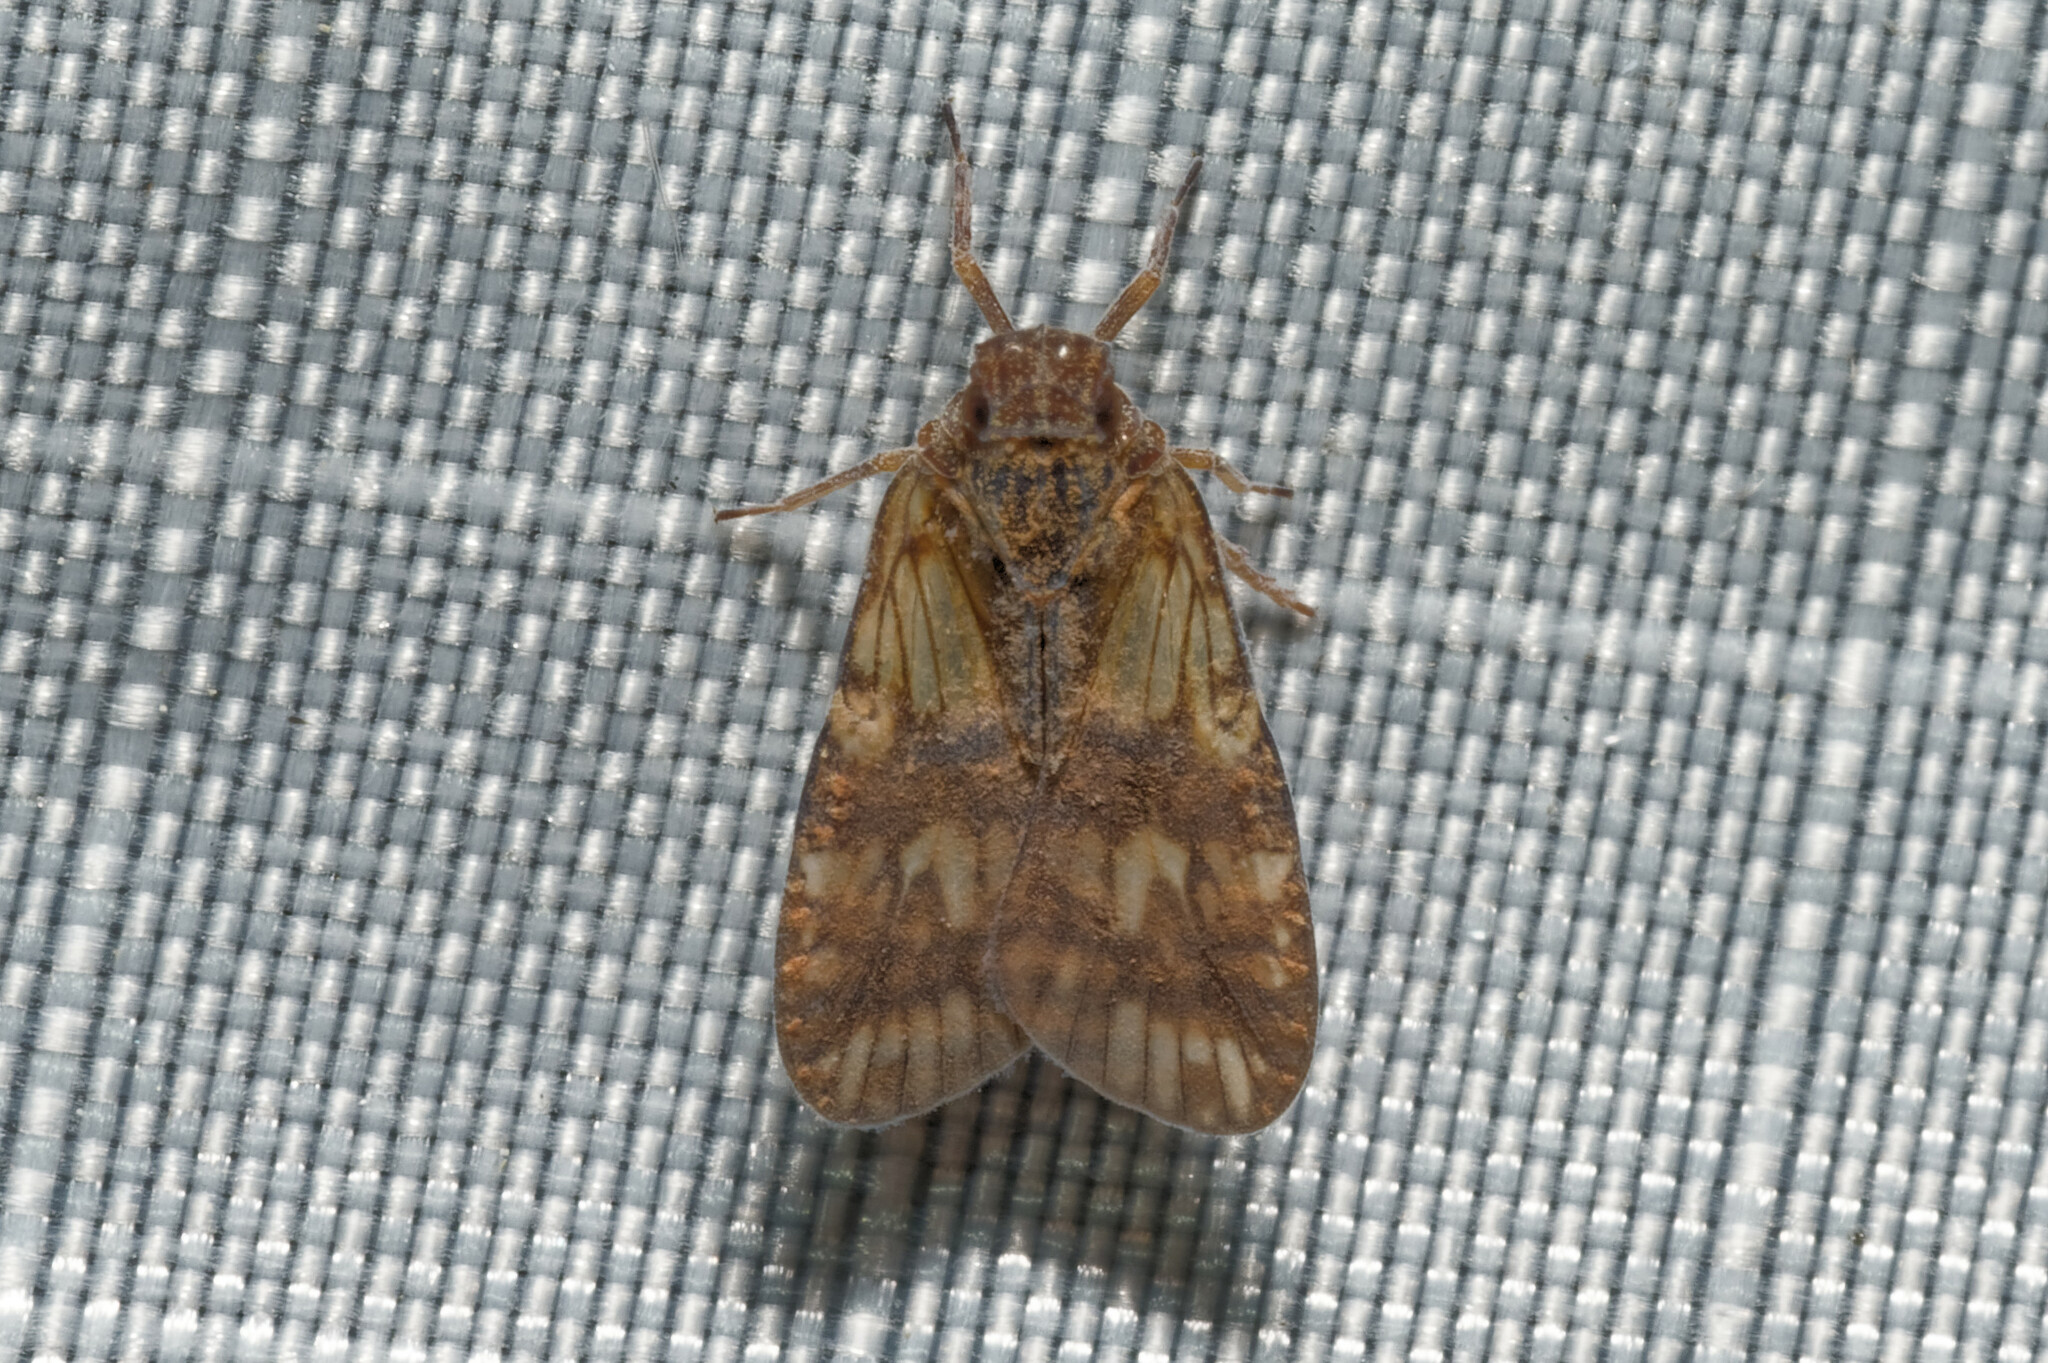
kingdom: Animalia
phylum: Arthropoda
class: Insecta
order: Hemiptera
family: Cixiidae
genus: Bothriocera
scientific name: Bothriocera transversa
